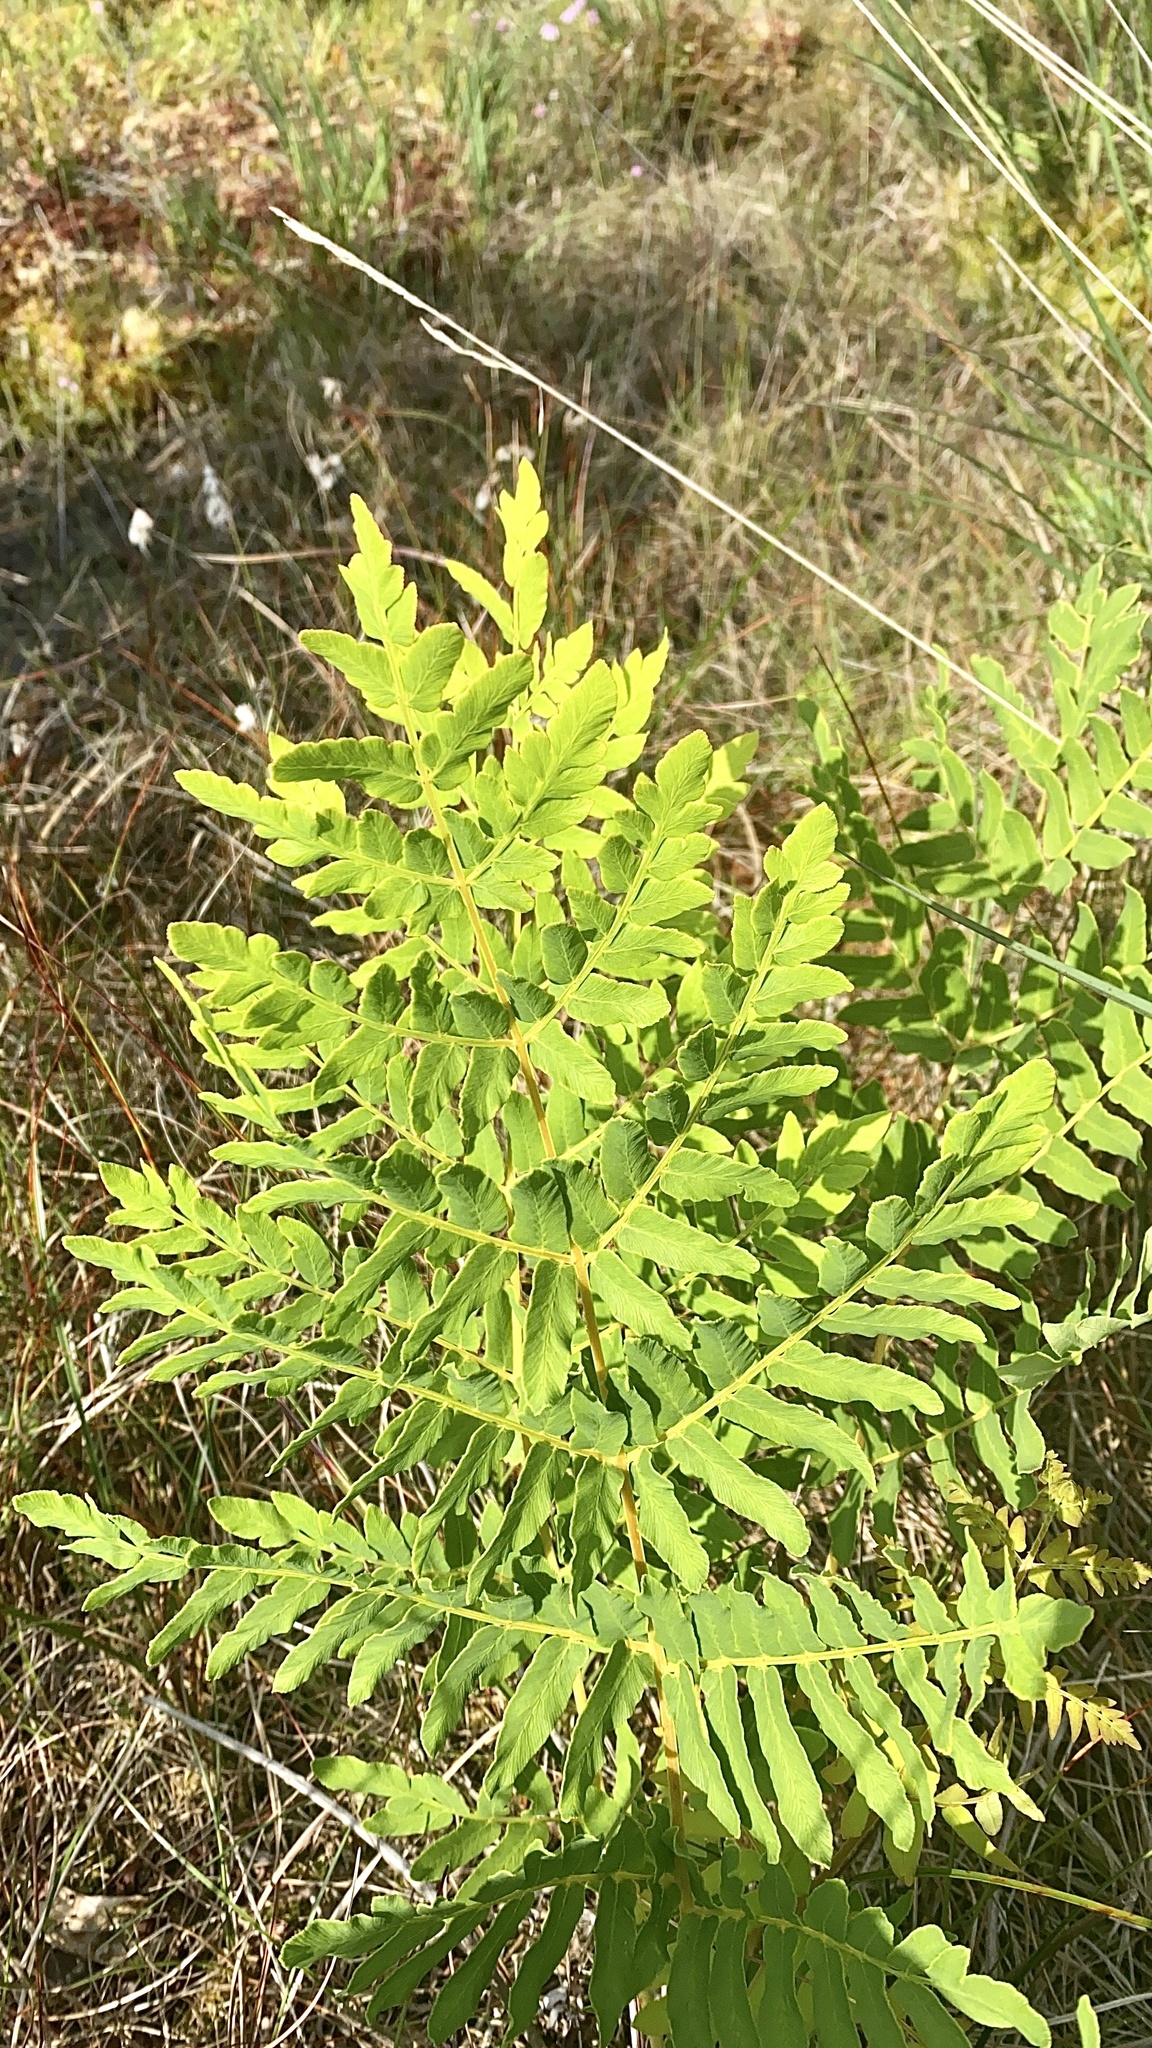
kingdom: Plantae
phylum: Tracheophyta
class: Polypodiopsida
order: Osmundales
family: Osmundaceae
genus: Osmunda
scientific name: Osmunda regalis
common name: Royal fern
